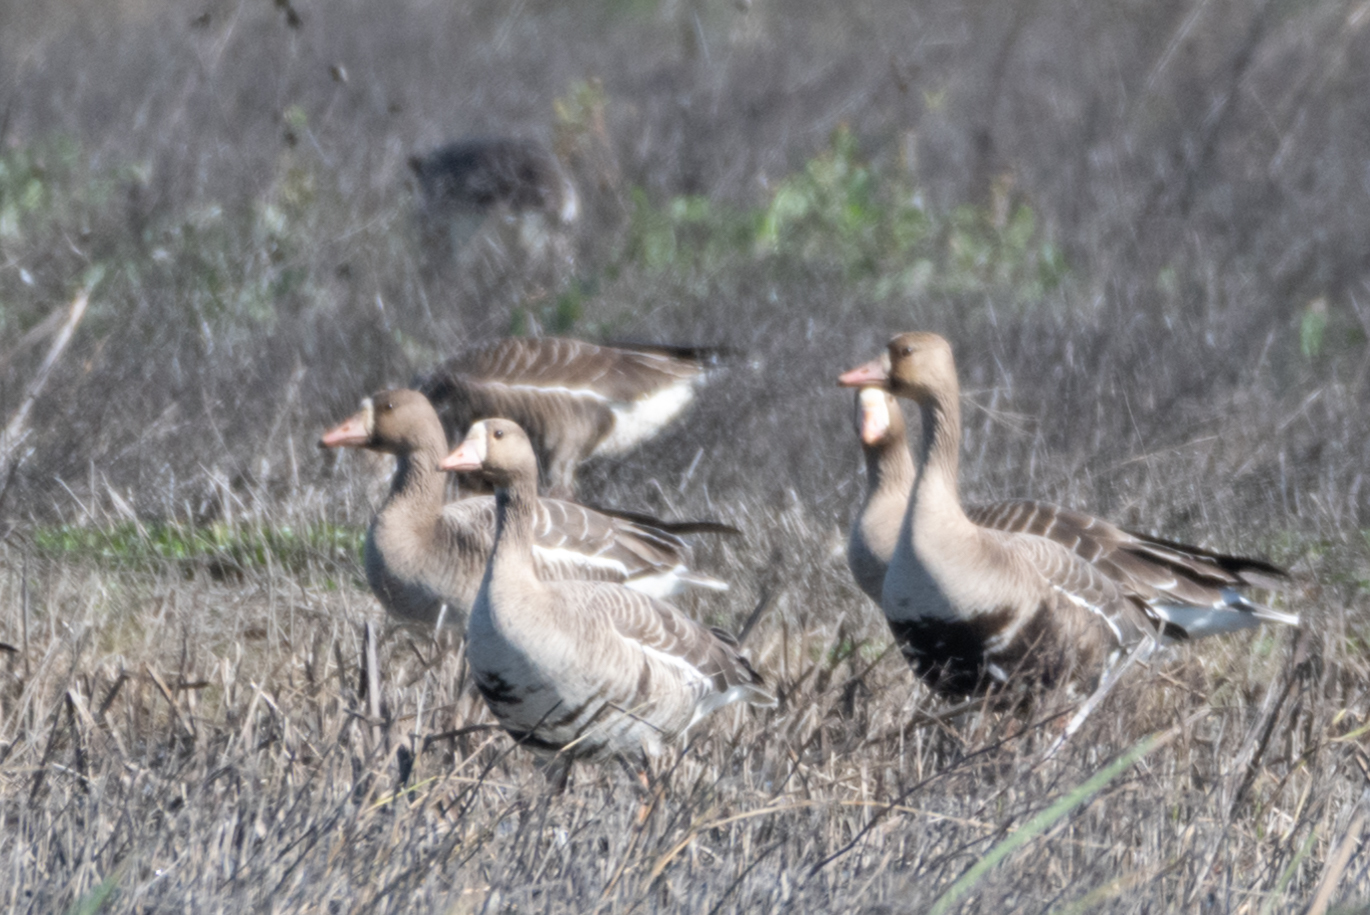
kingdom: Animalia
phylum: Chordata
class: Aves
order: Anseriformes
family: Anatidae
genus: Anser
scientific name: Anser albifrons
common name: Greater white-fronted goose
